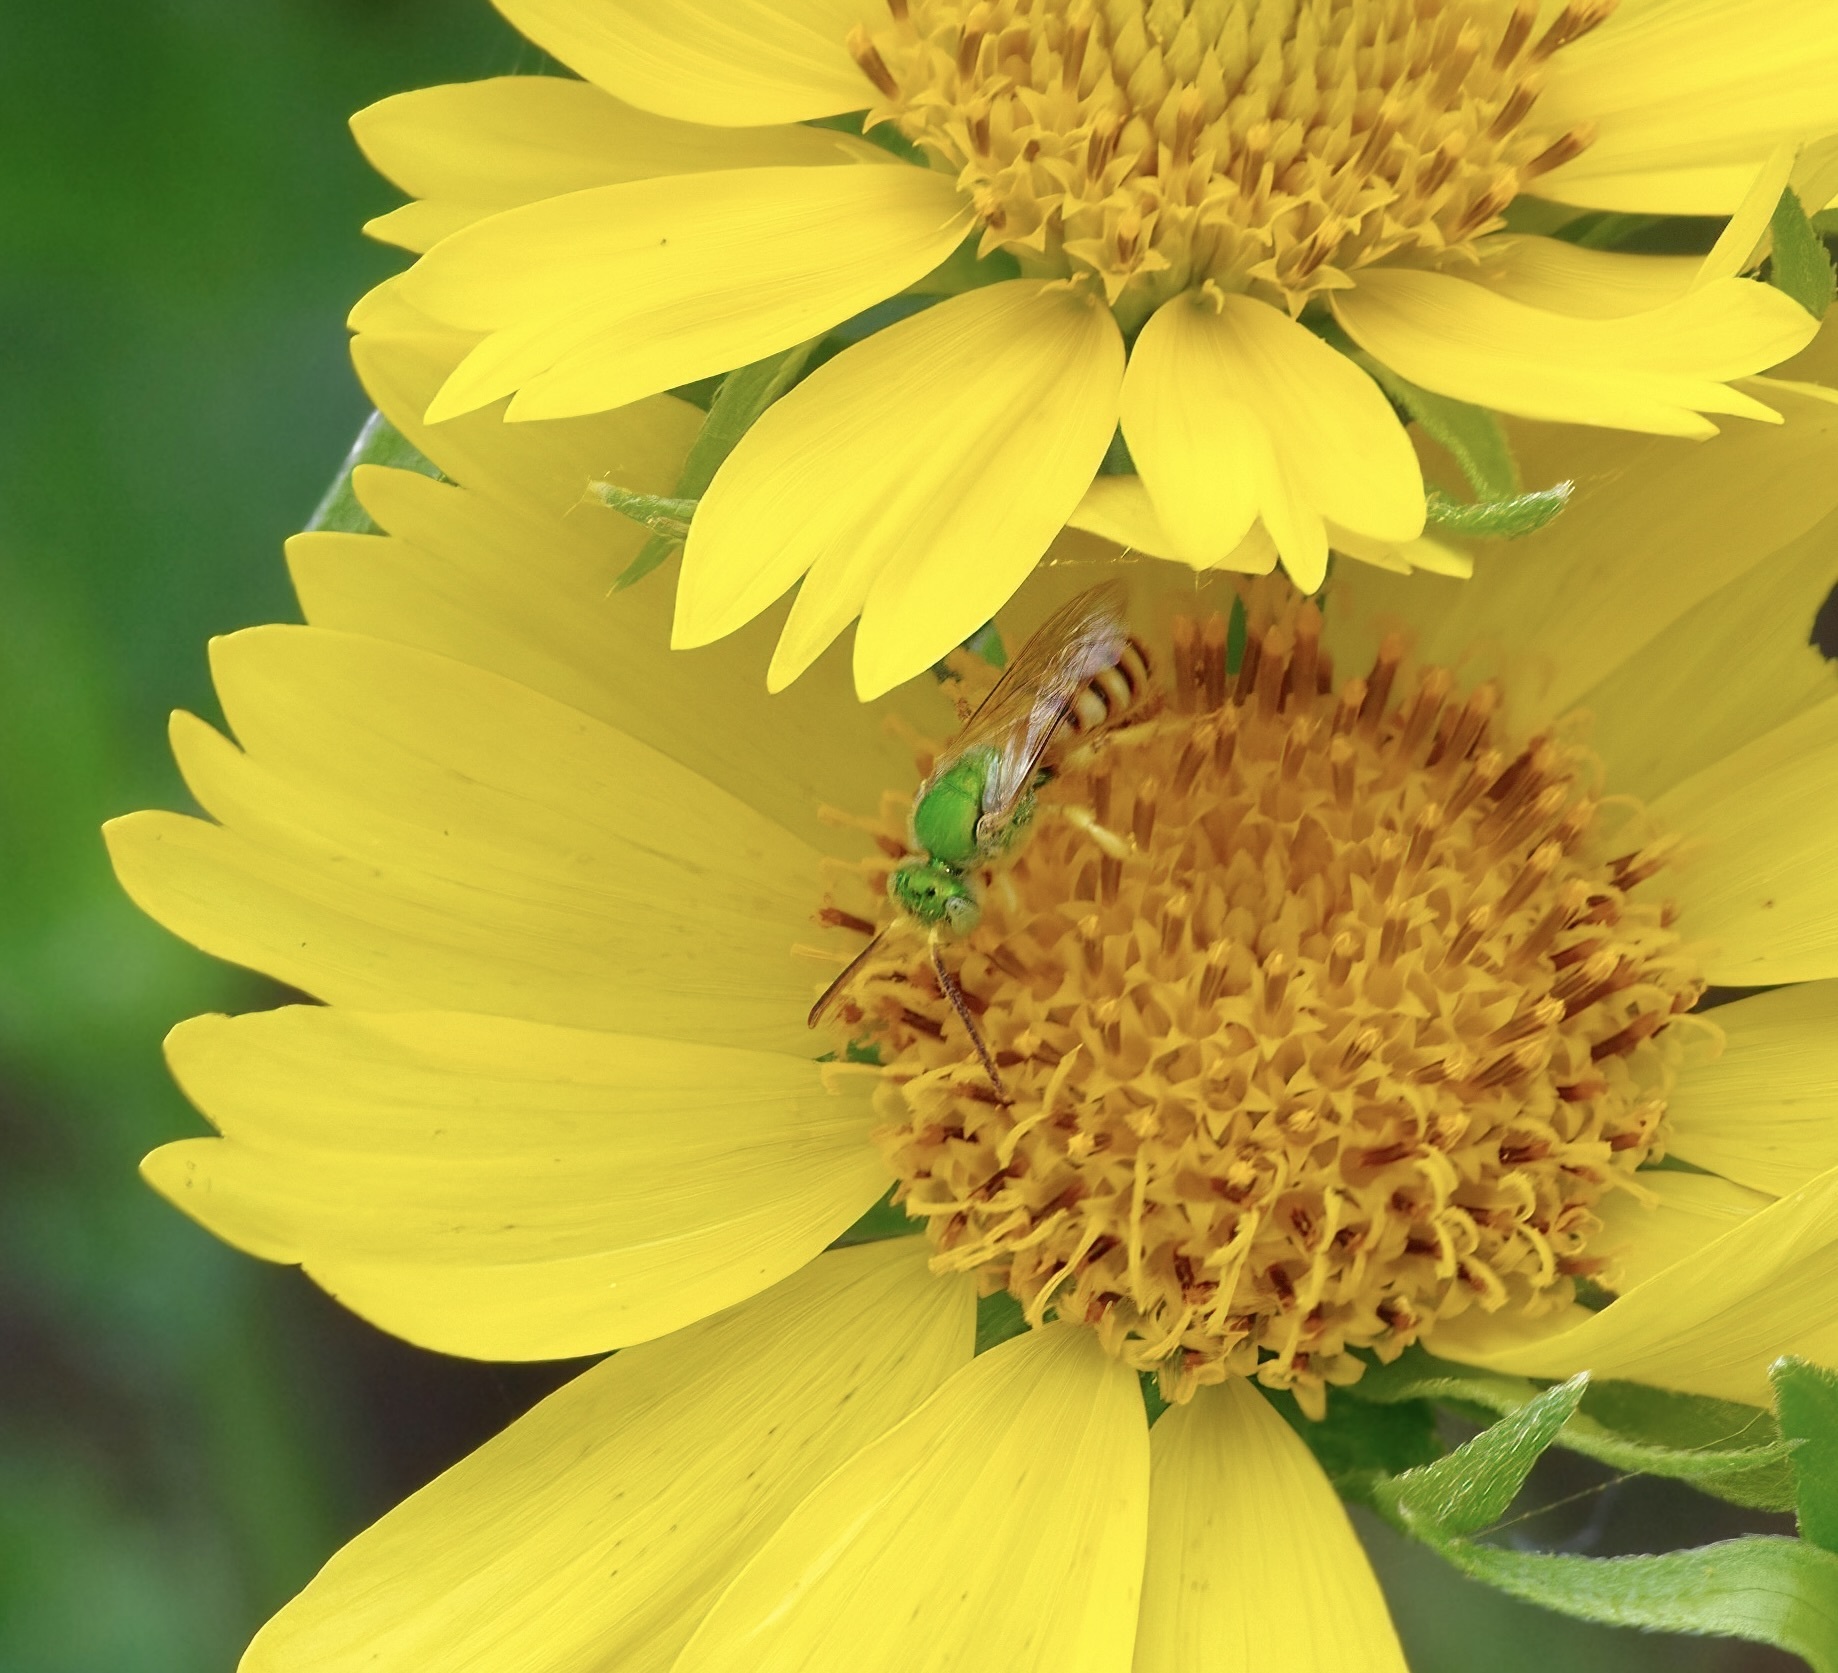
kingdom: Animalia
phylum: Arthropoda
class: Insecta
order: Hymenoptera
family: Halictidae
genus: Agapostemon
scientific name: Agapostemon melliventris
